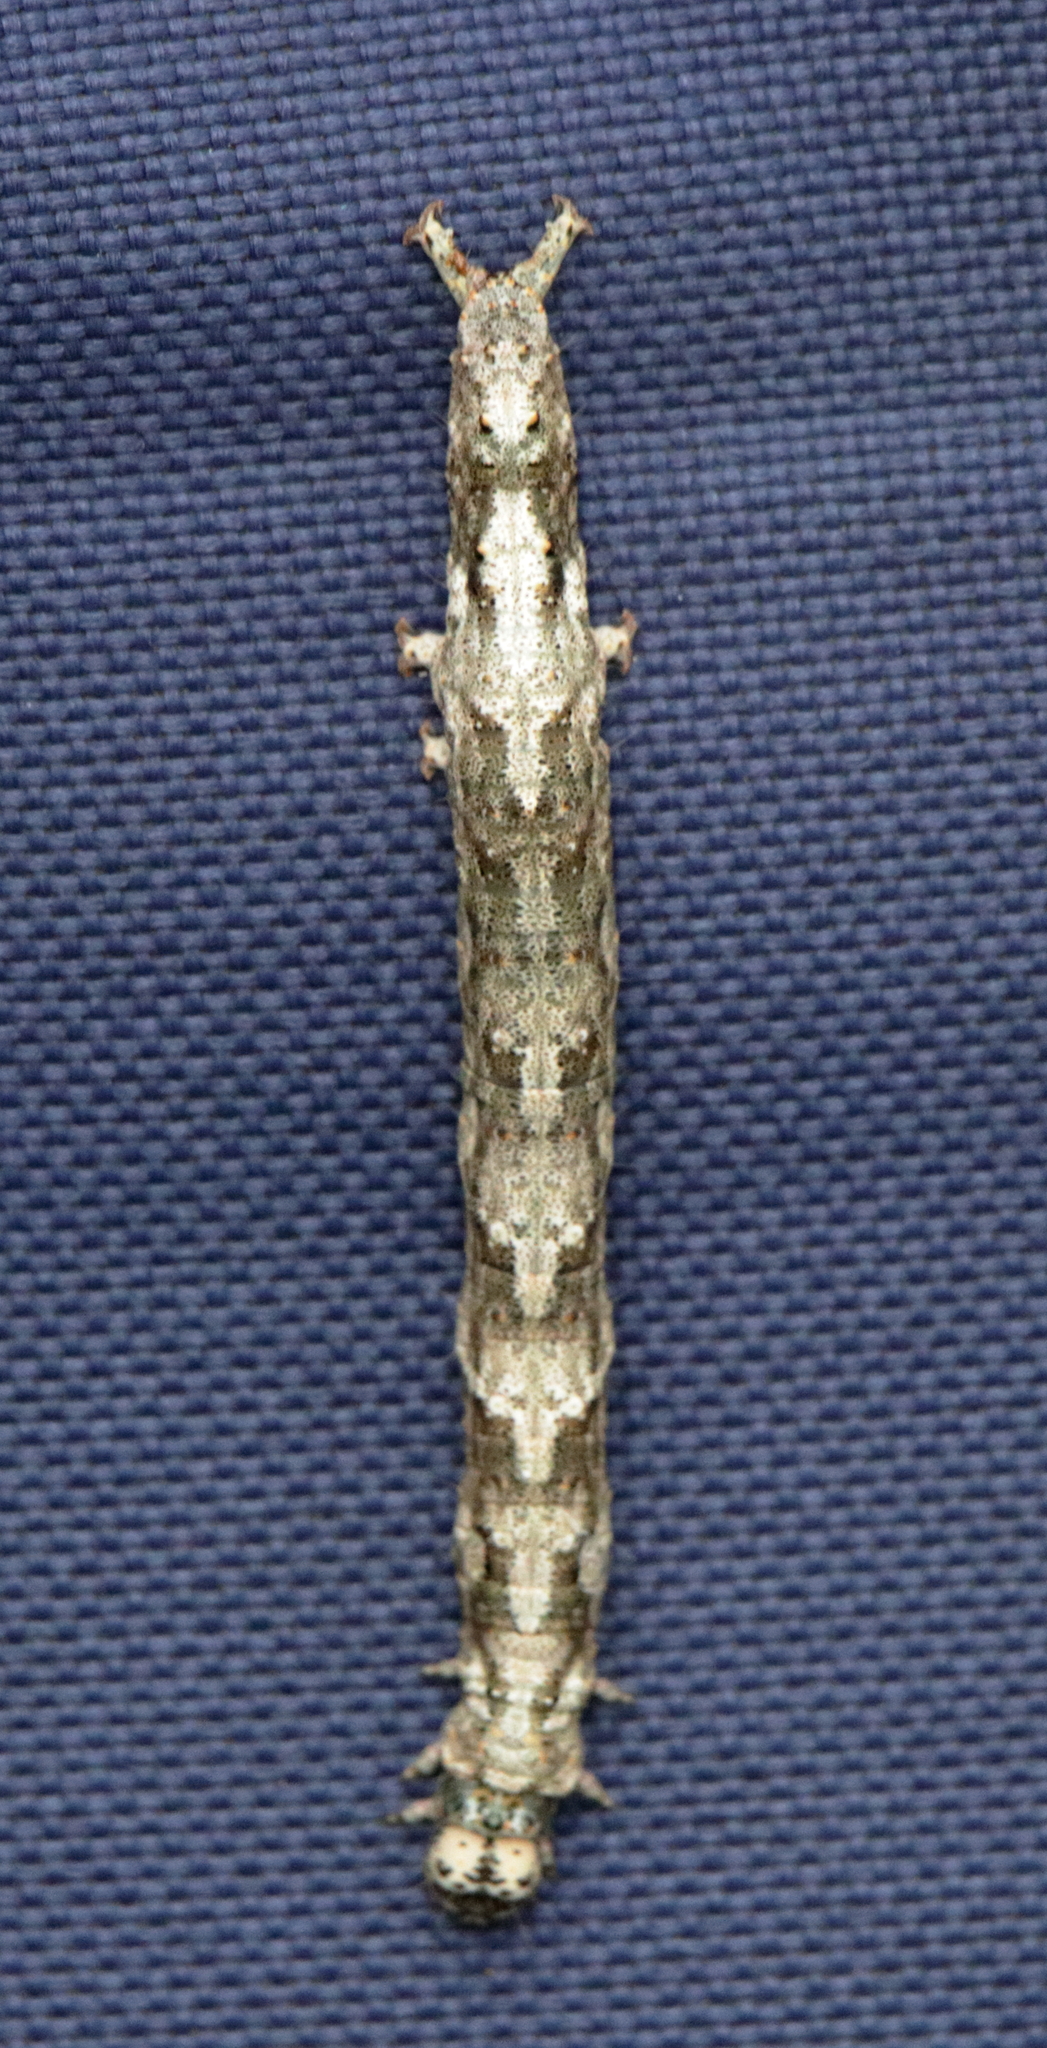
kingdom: Animalia
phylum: Arthropoda
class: Insecta
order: Lepidoptera
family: Erebidae
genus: Metria
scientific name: Metria amella
